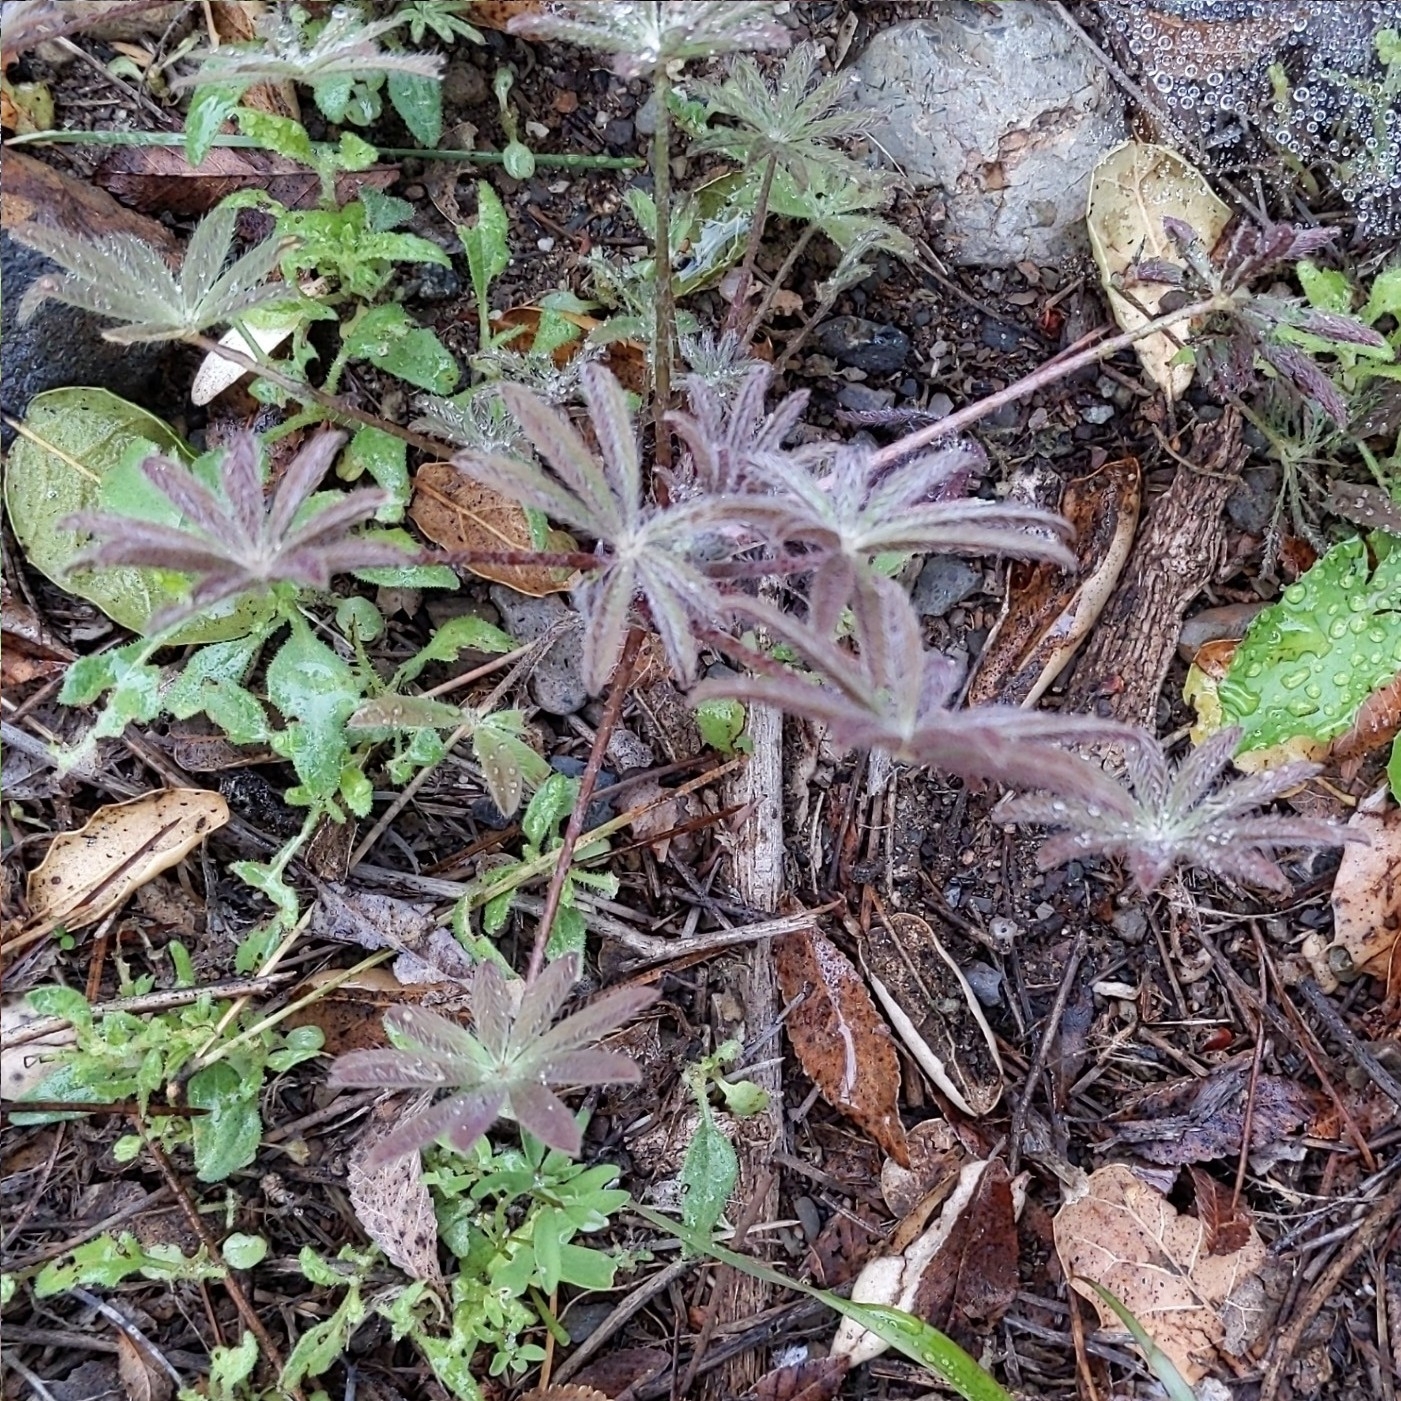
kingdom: Plantae
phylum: Tracheophyta
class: Magnoliopsida
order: Fabales
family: Fabaceae
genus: Lupinus
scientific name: Lupinus sparsiflorus
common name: Coulter's lupine
